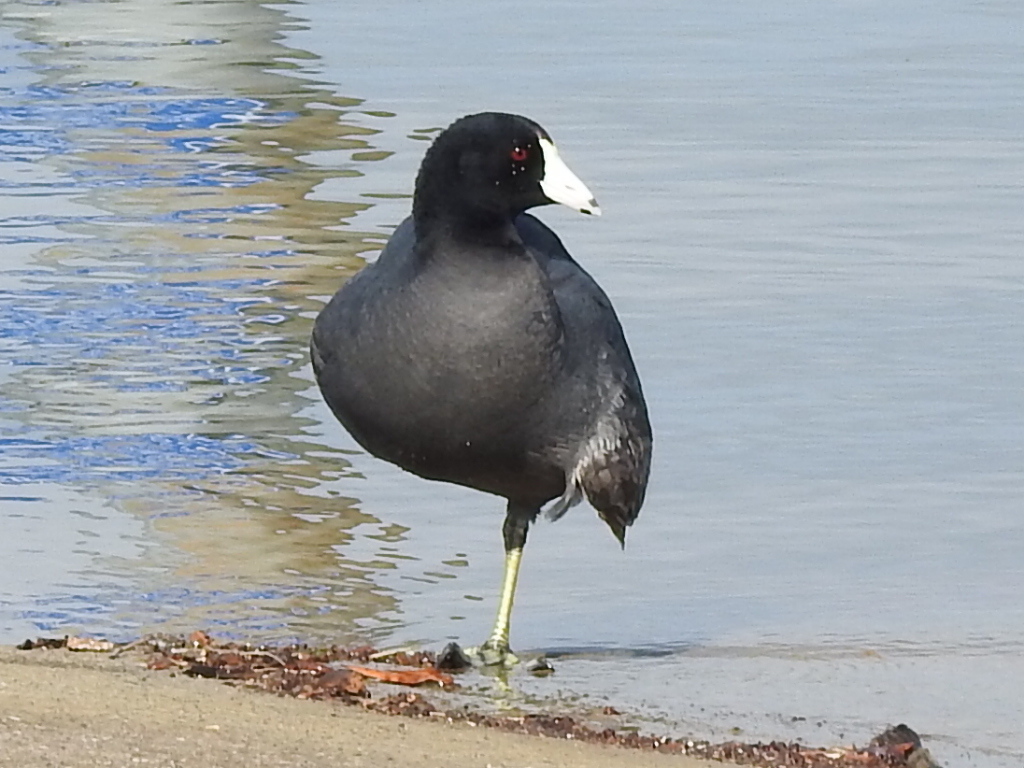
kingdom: Animalia
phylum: Chordata
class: Aves
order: Gruiformes
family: Rallidae
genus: Fulica
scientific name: Fulica americana
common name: American coot
